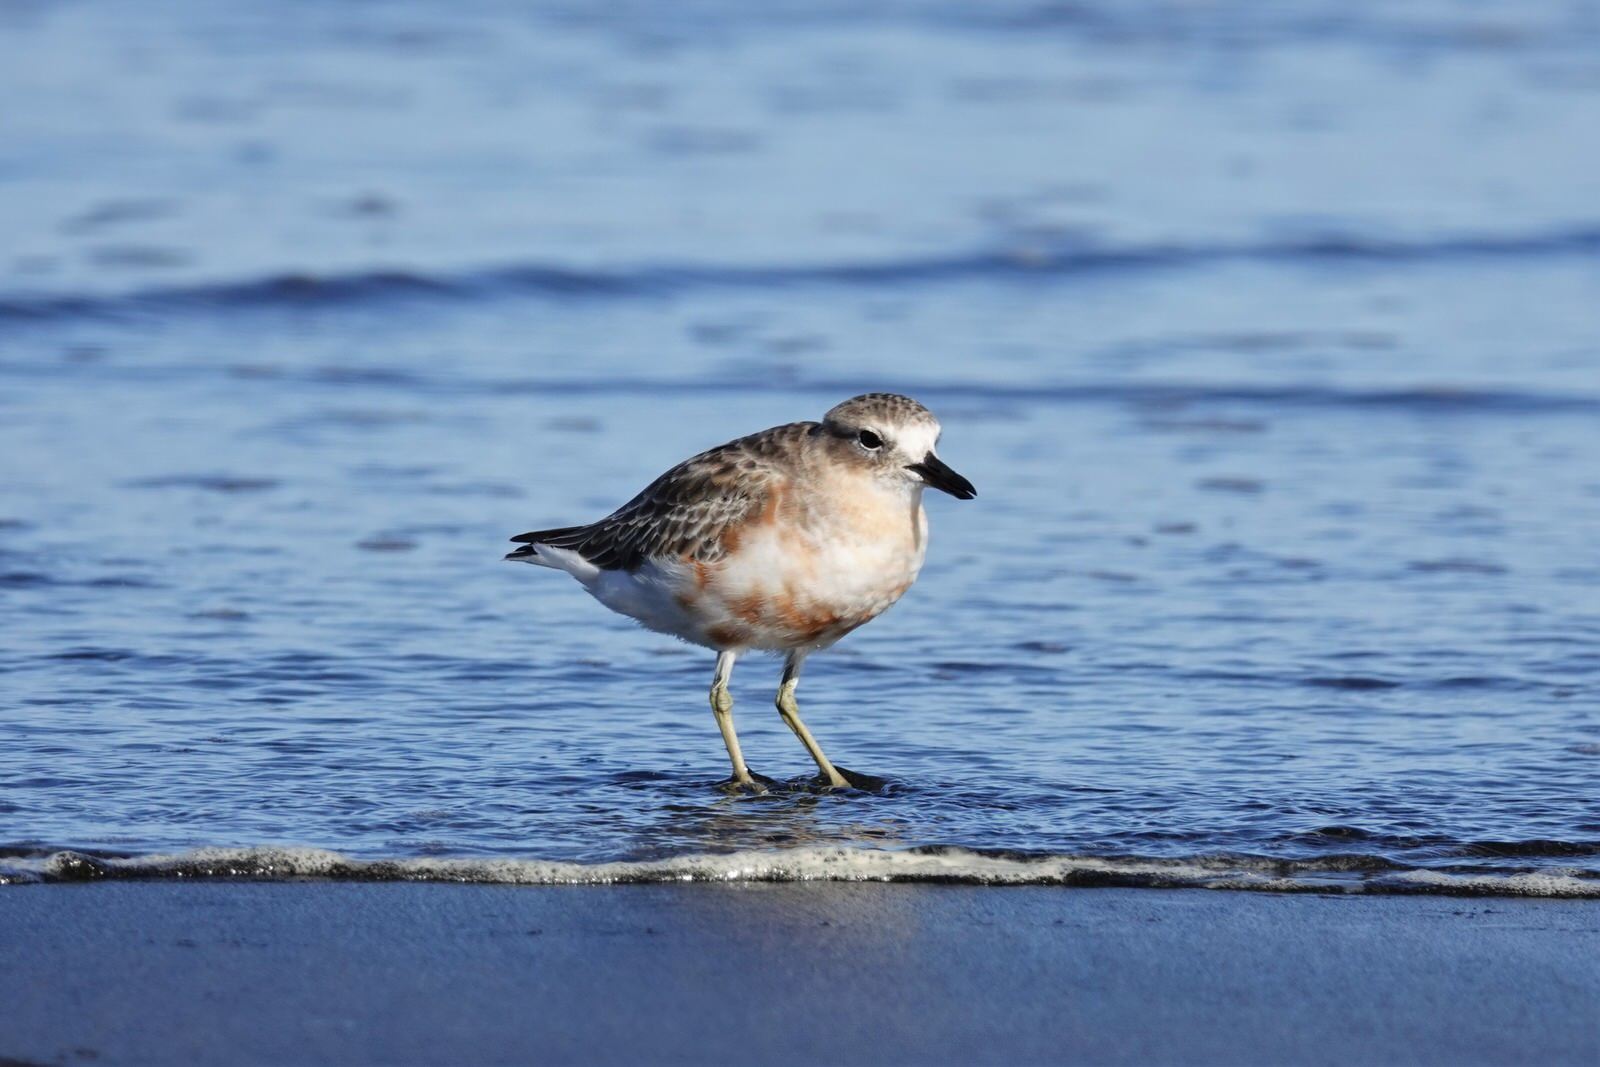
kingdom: Animalia
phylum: Chordata
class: Aves
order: Charadriiformes
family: Charadriidae
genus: Anarhynchus
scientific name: Anarhynchus
